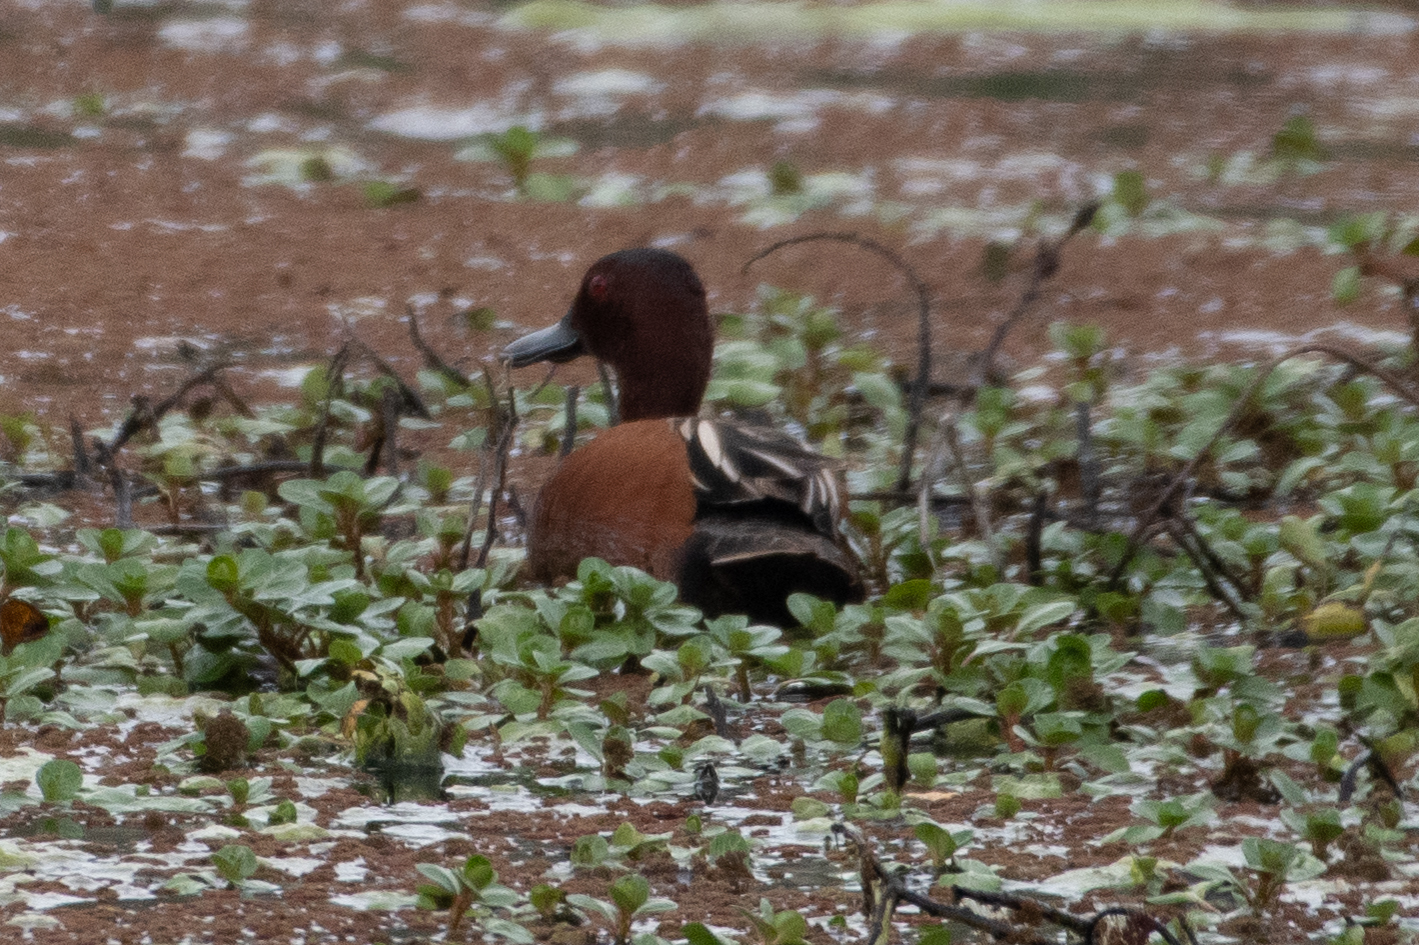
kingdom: Animalia
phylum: Chordata
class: Aves
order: Anseriformes
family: Anatidae
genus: Spatula
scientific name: Spatula cyanoptera
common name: Cinnamon teal
